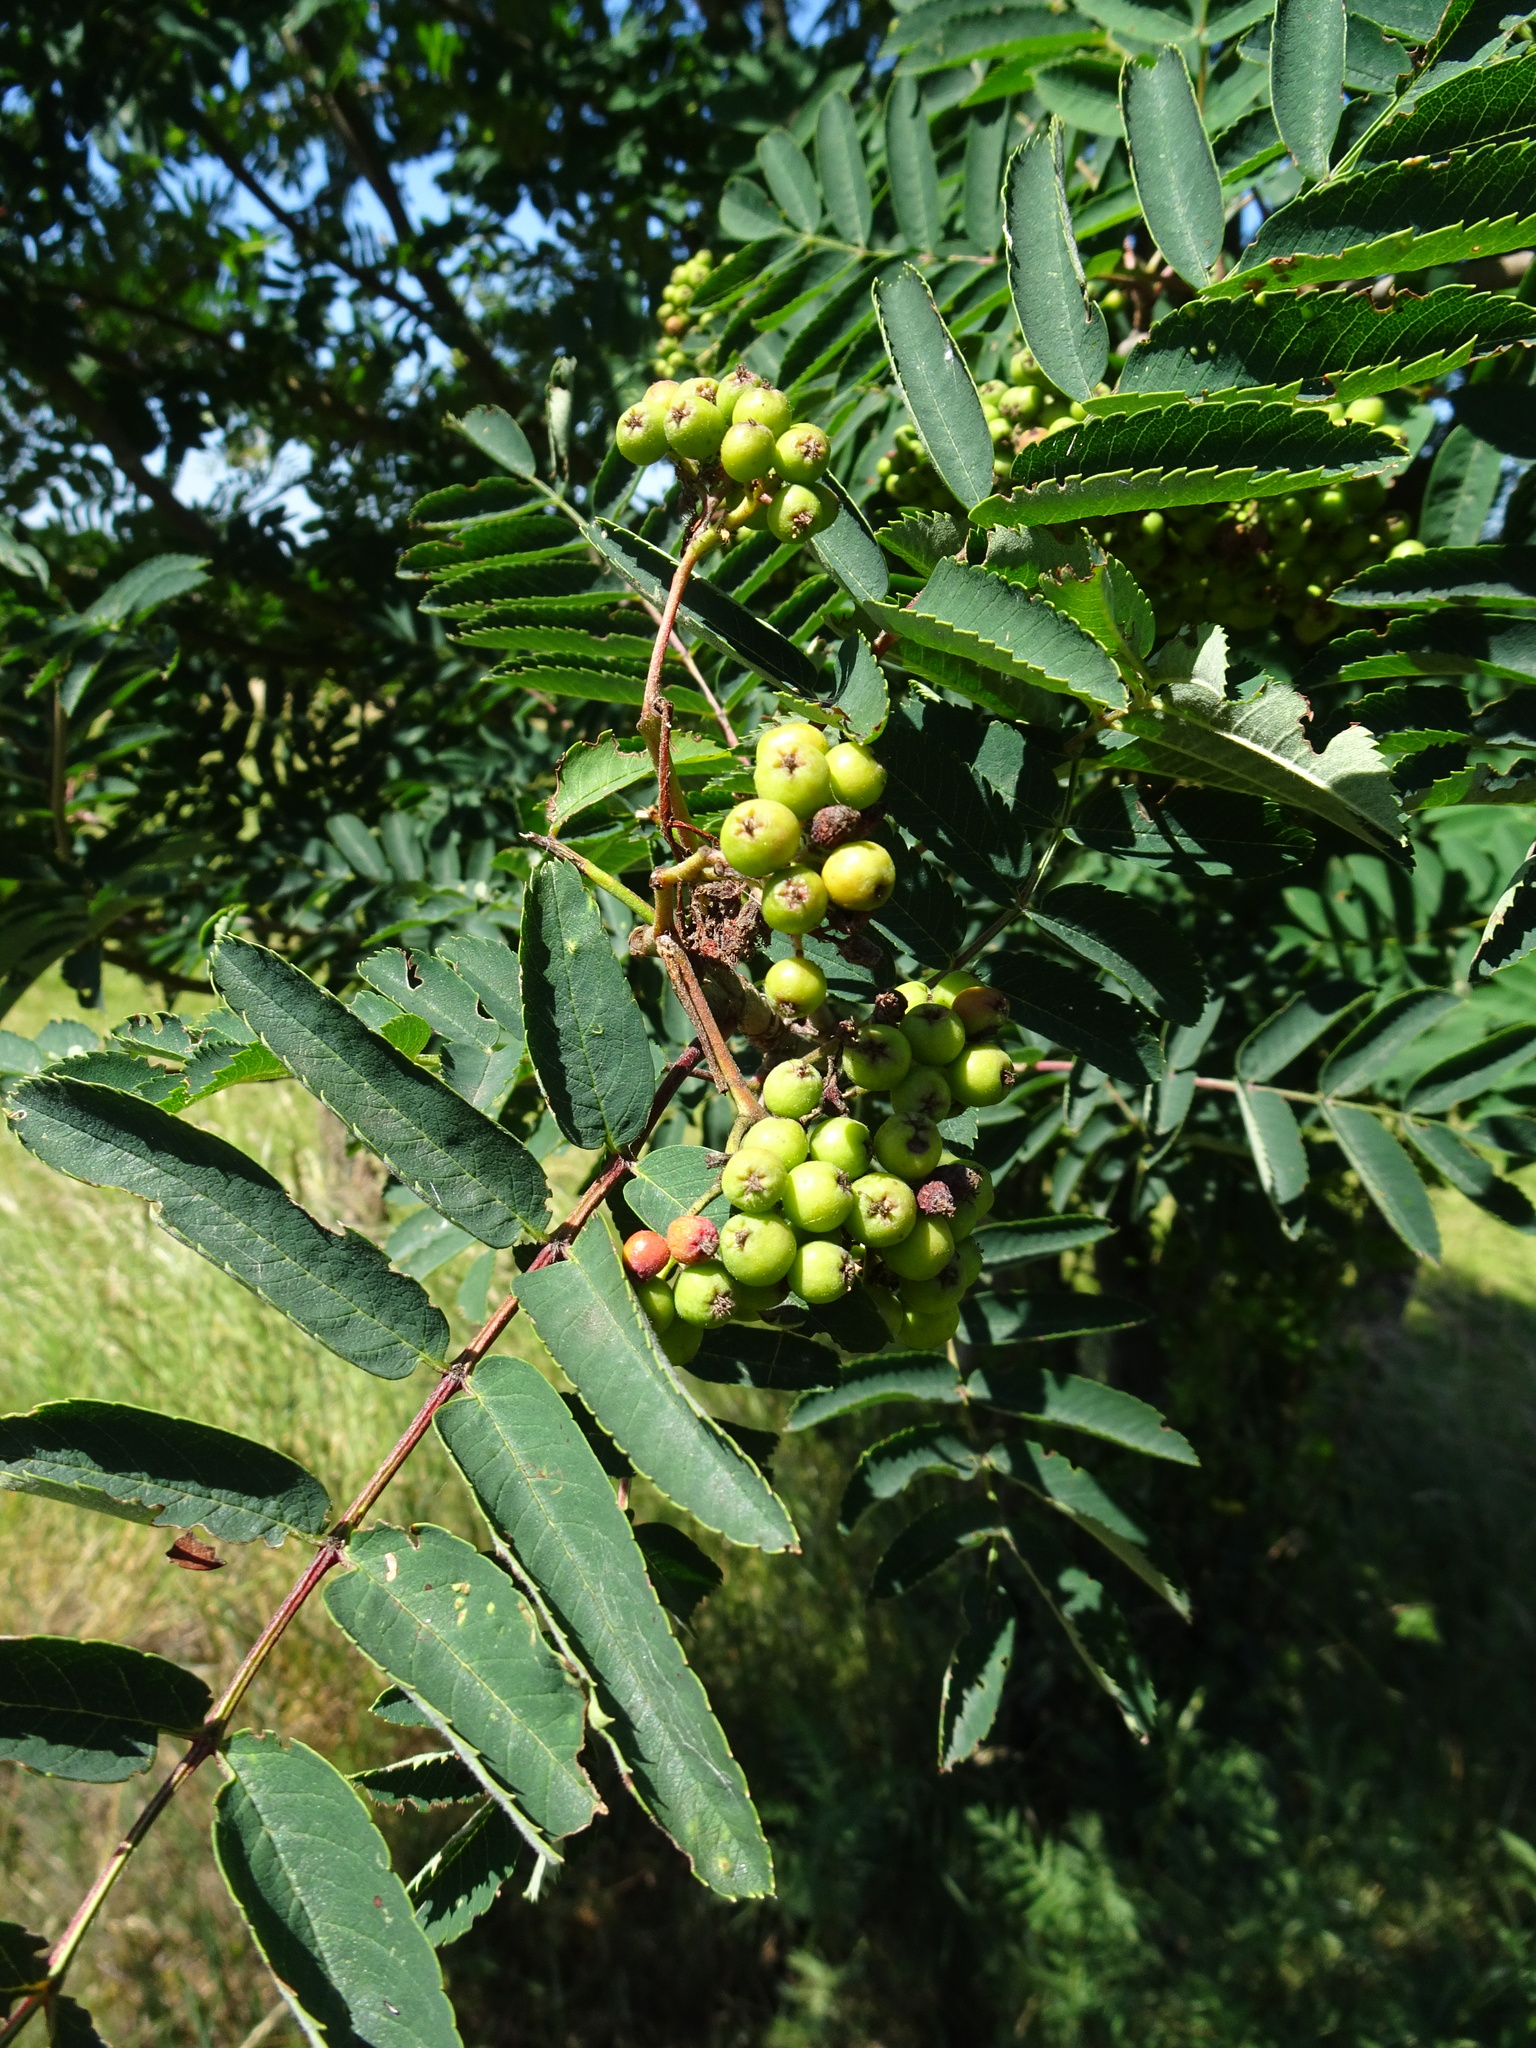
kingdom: Plantae
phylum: Tracheophyta
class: Magnoliopsida
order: Rosales
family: Rosaceae
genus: Sorbus
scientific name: Sorbus aucuparia
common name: Rowan
